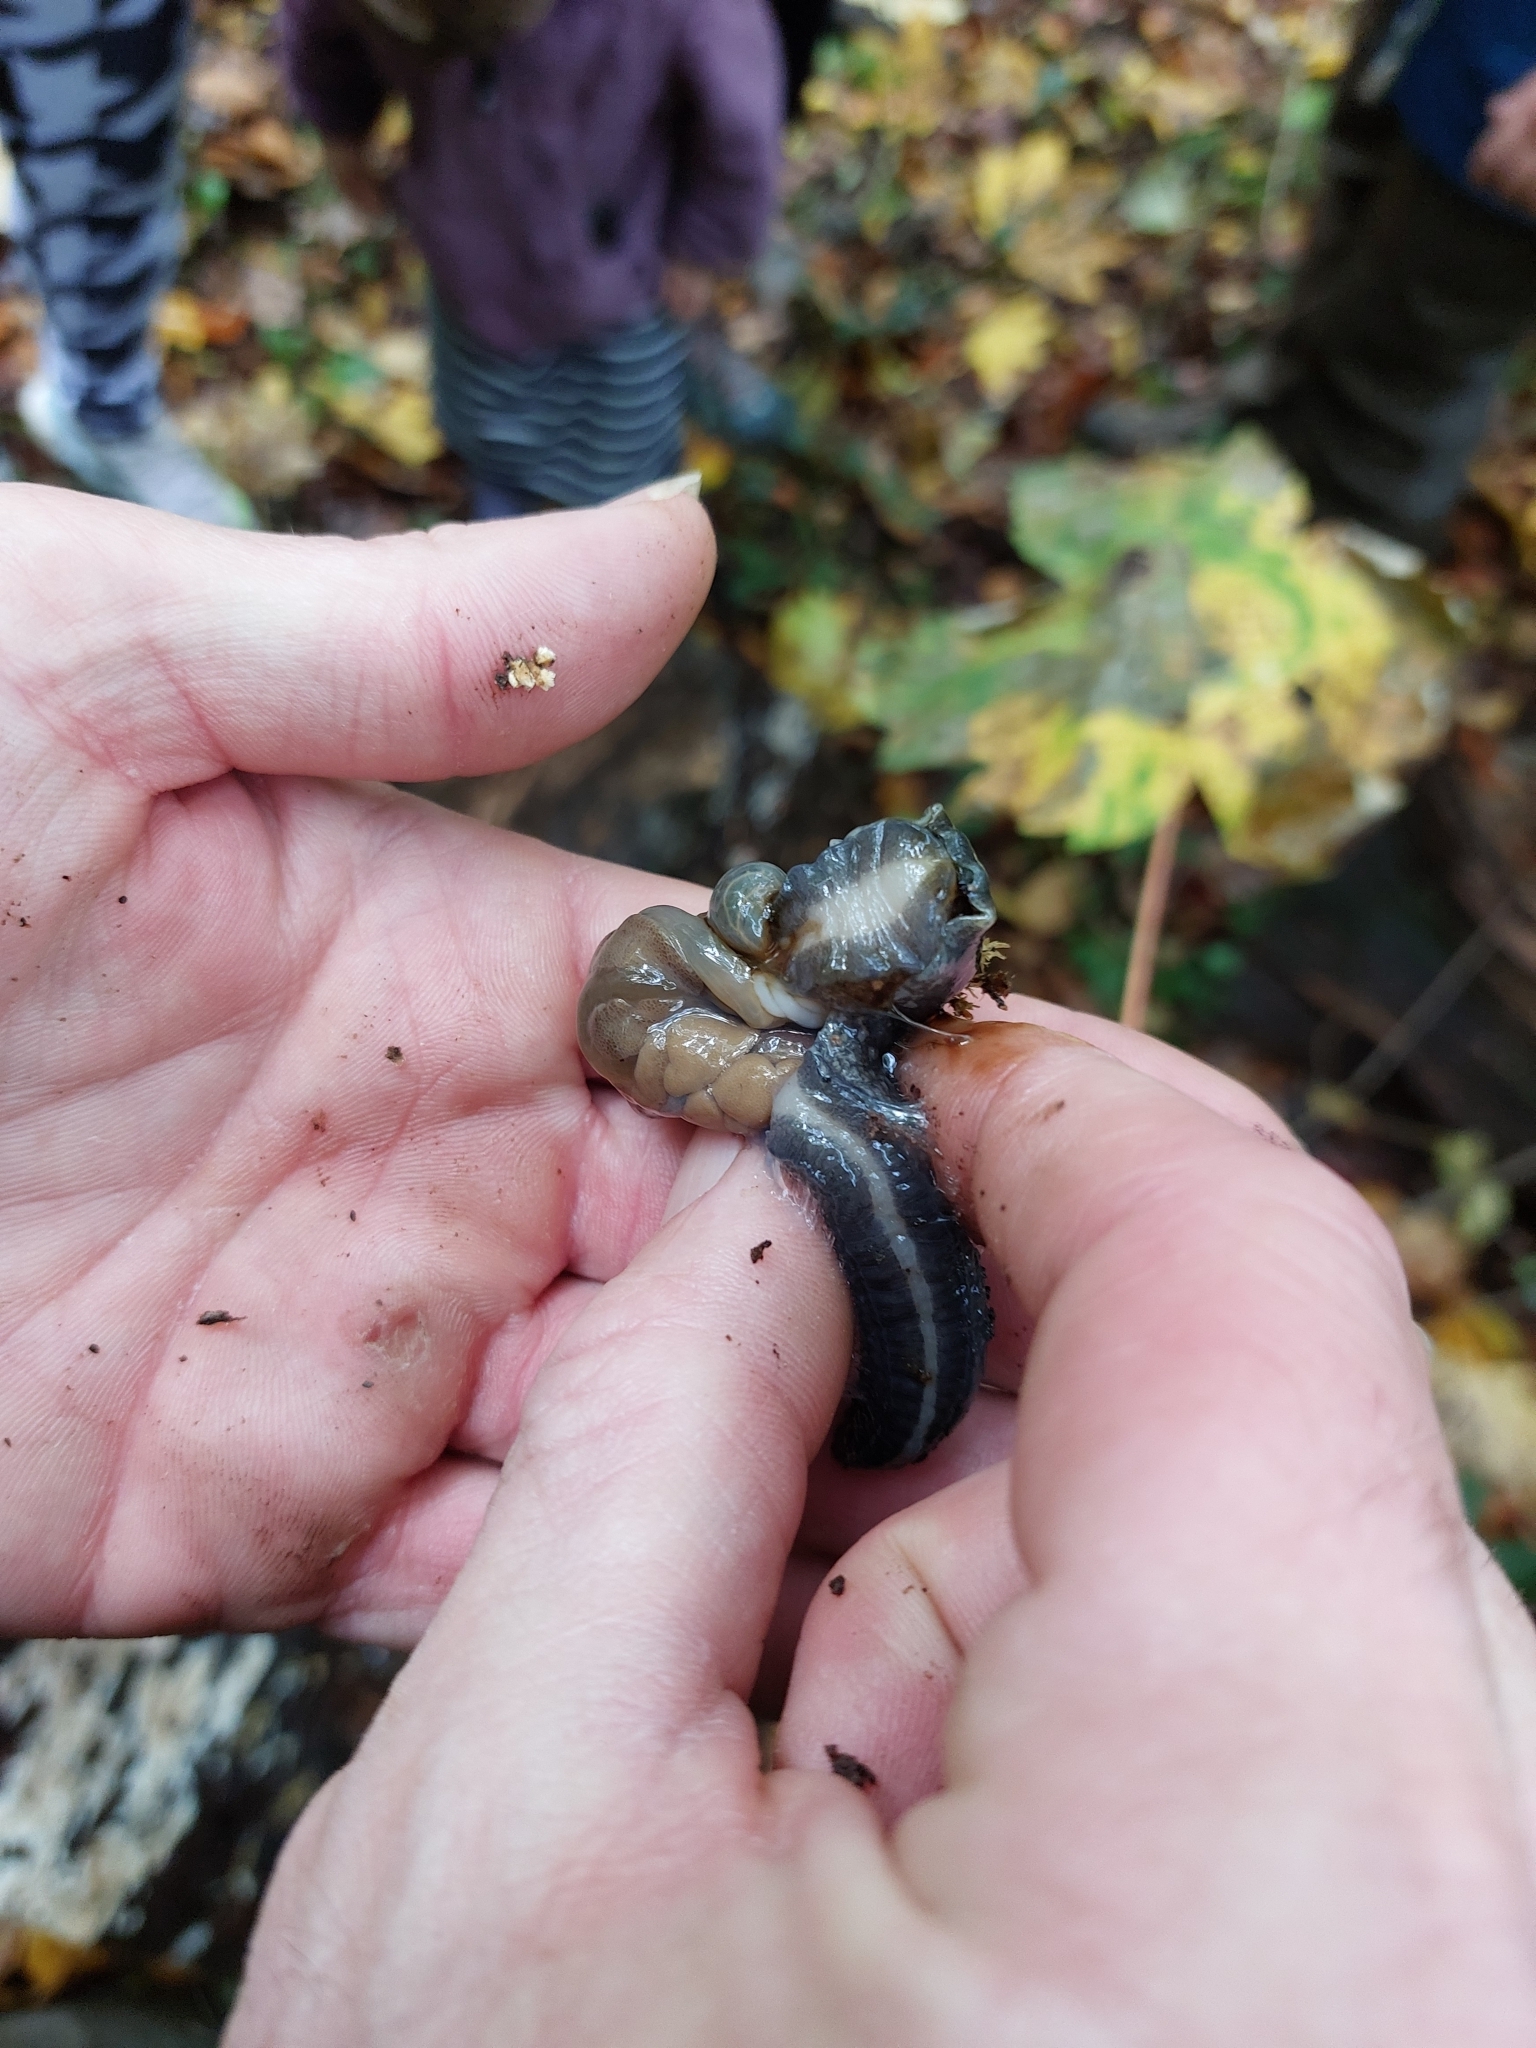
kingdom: Animalia
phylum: Mollusca
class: Gastropoda
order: Stylommatophora
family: Limacidae
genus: Limax
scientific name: Limax cinereoniger
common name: Ash-black slug
